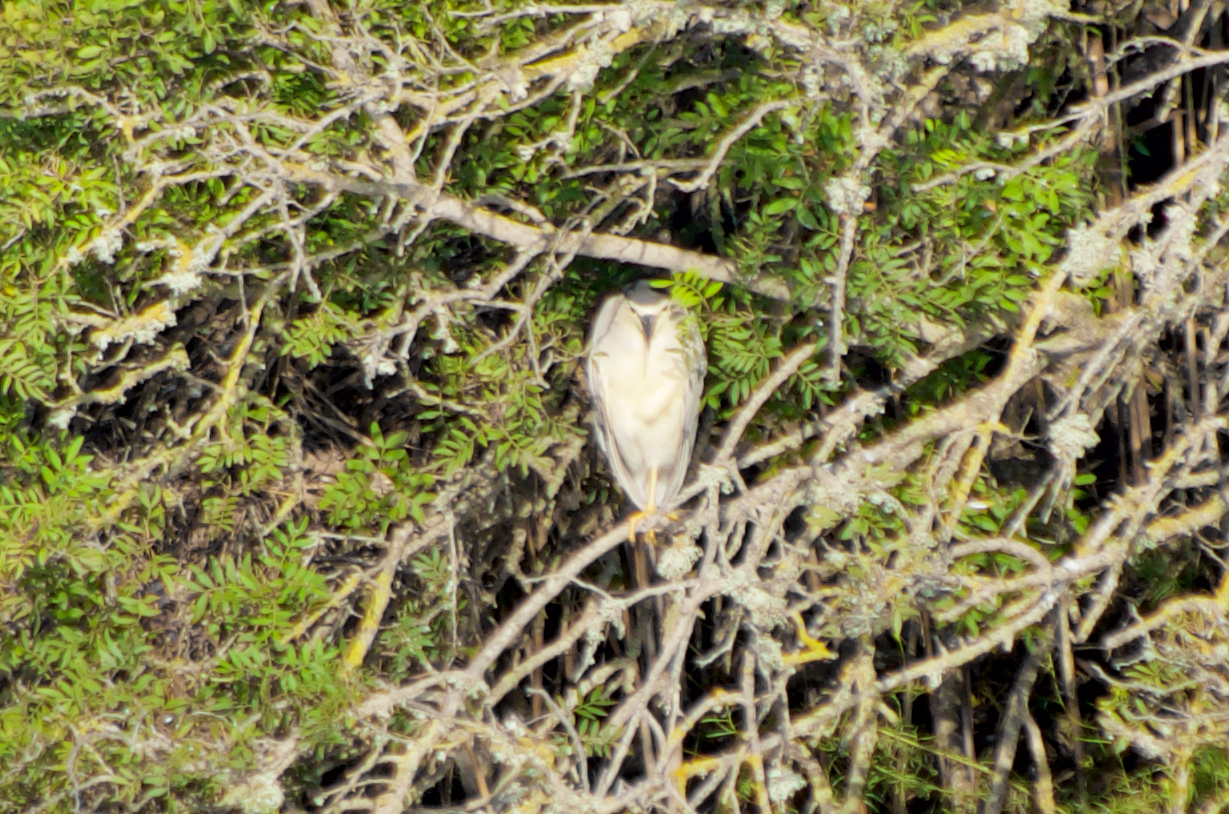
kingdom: Animalia
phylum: Chordata
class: Aves
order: Pelecaniformes
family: Ardeidae
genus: Nycticorax
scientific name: Nycticorax nycticorax
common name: Black-crowned night heron
